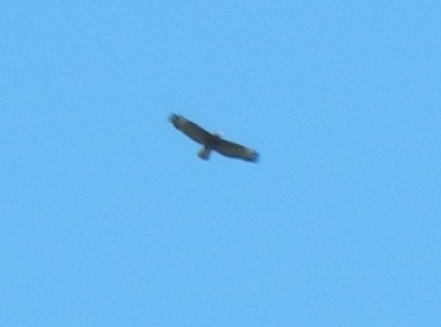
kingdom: Animalia
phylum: Chordata
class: Aves
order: Accipitriformes
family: Accipitridae
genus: Aquila
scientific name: Aquila chrysaetos
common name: Golden eagle
